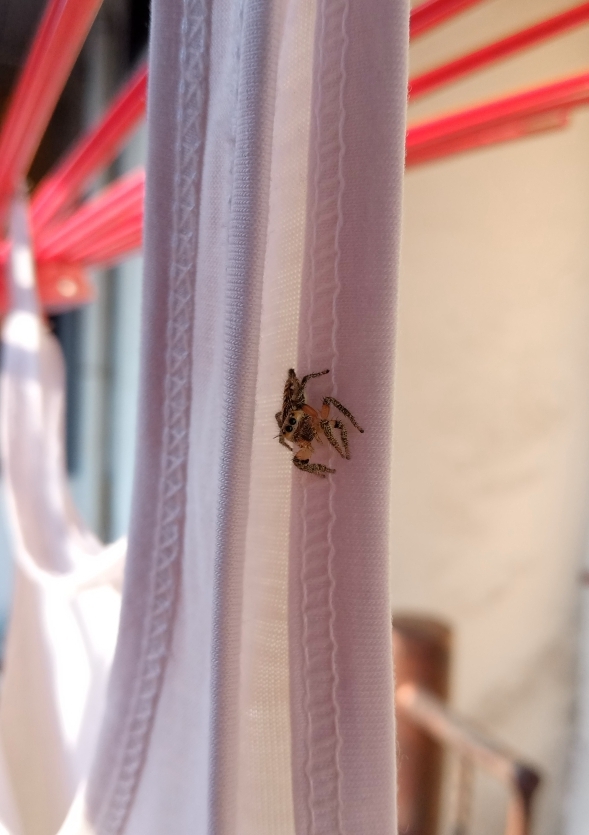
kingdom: Animalia
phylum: Arthropoda
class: Arachnida
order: Araneae
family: Salticidae
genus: Hyllus
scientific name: Hyllus semicupreus
